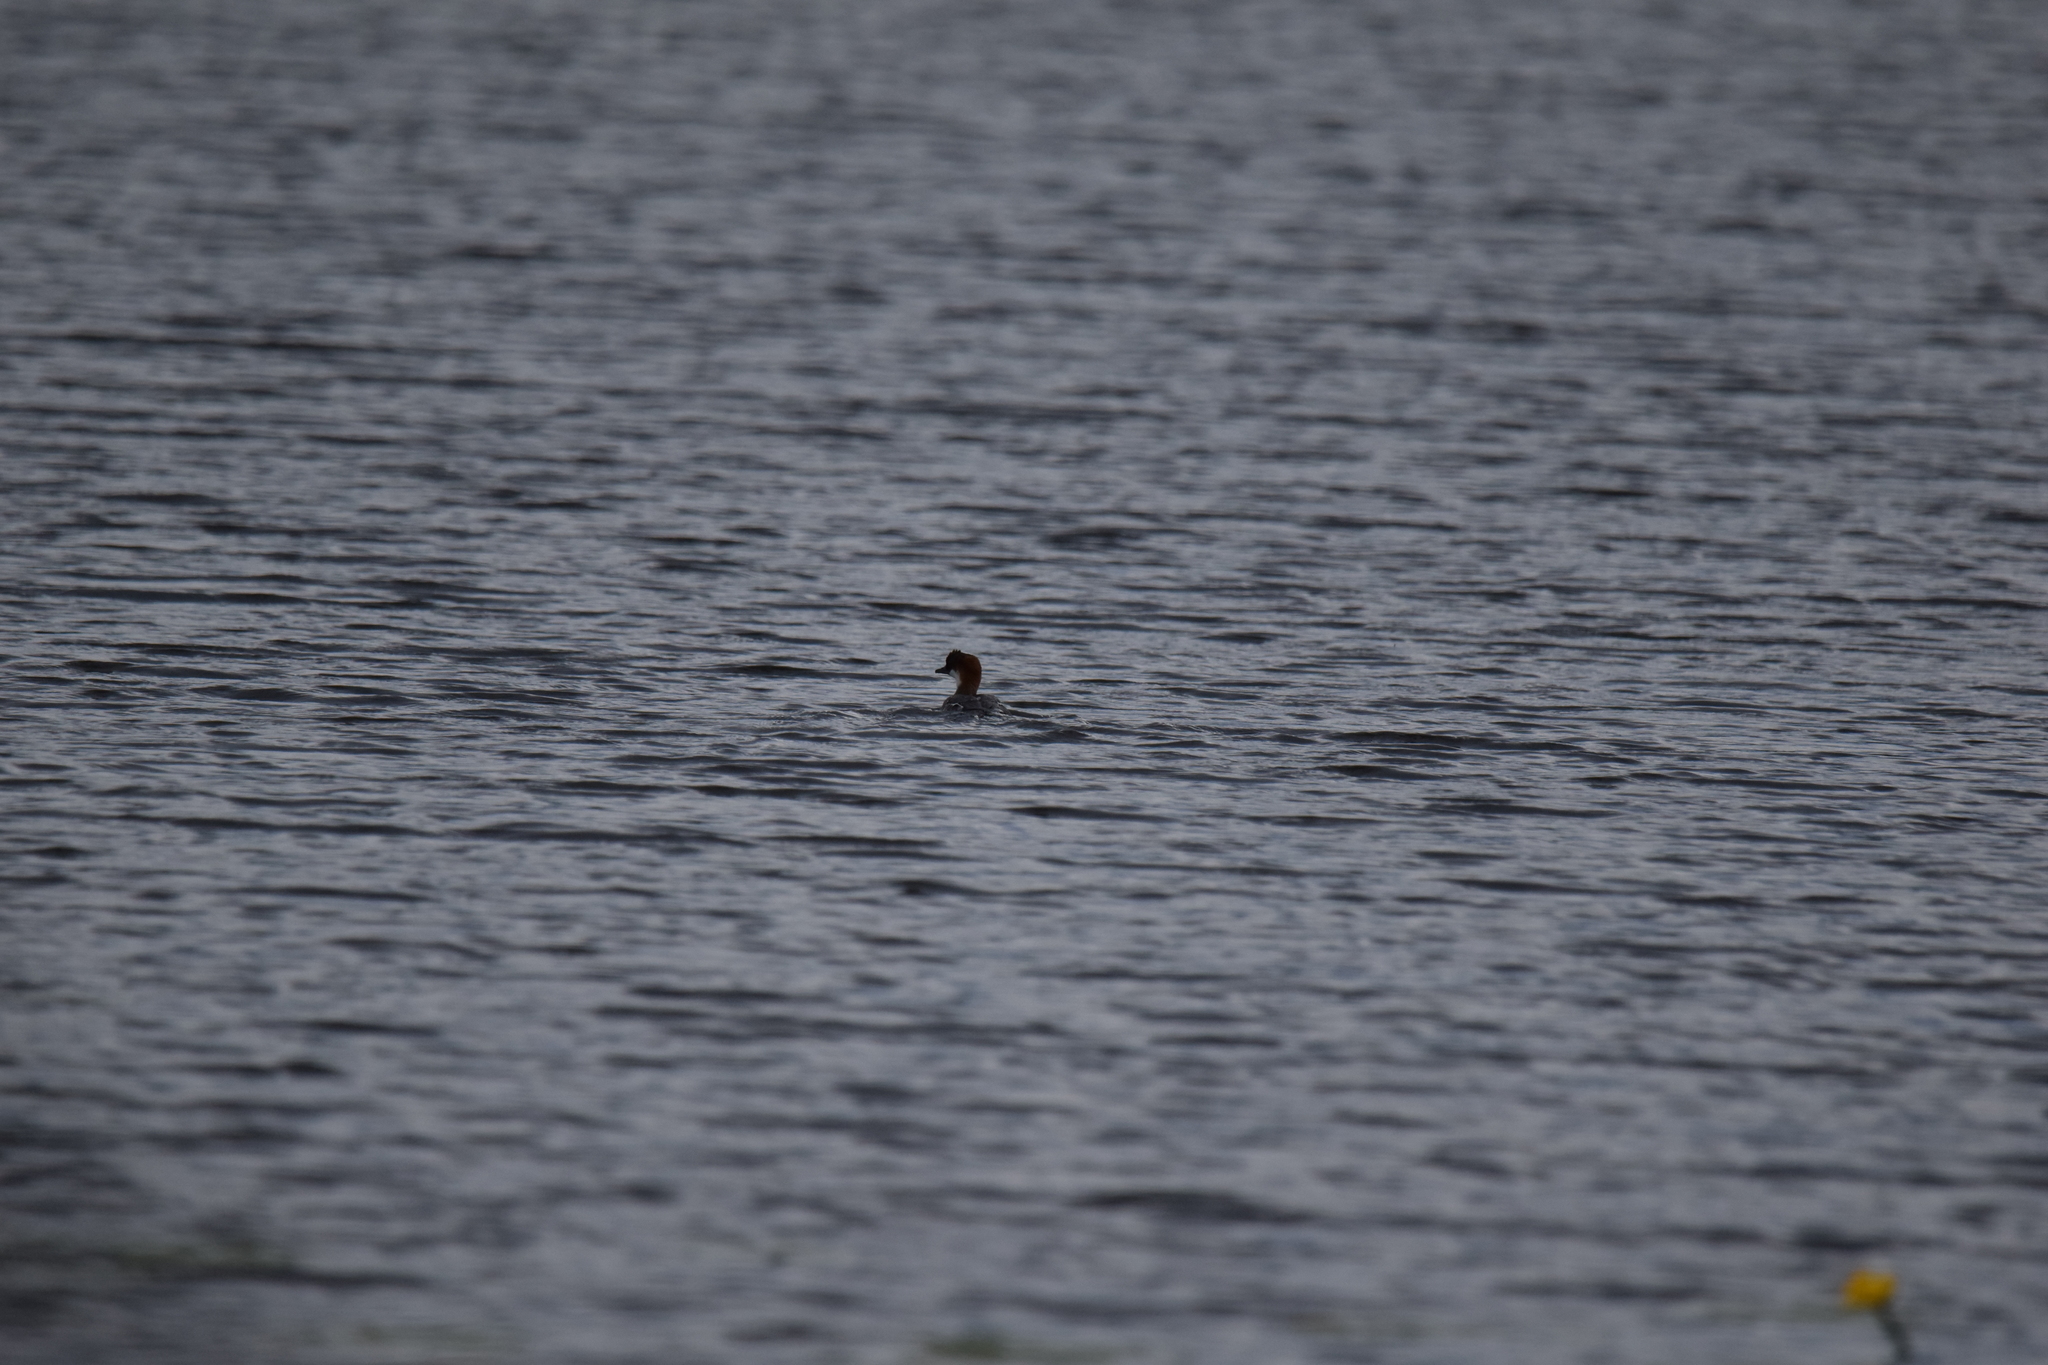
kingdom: Animalia
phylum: Chordata
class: Aves
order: Anseriformes
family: Anatidae
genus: Mergellus
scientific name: Mergellus albellus
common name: Smew
